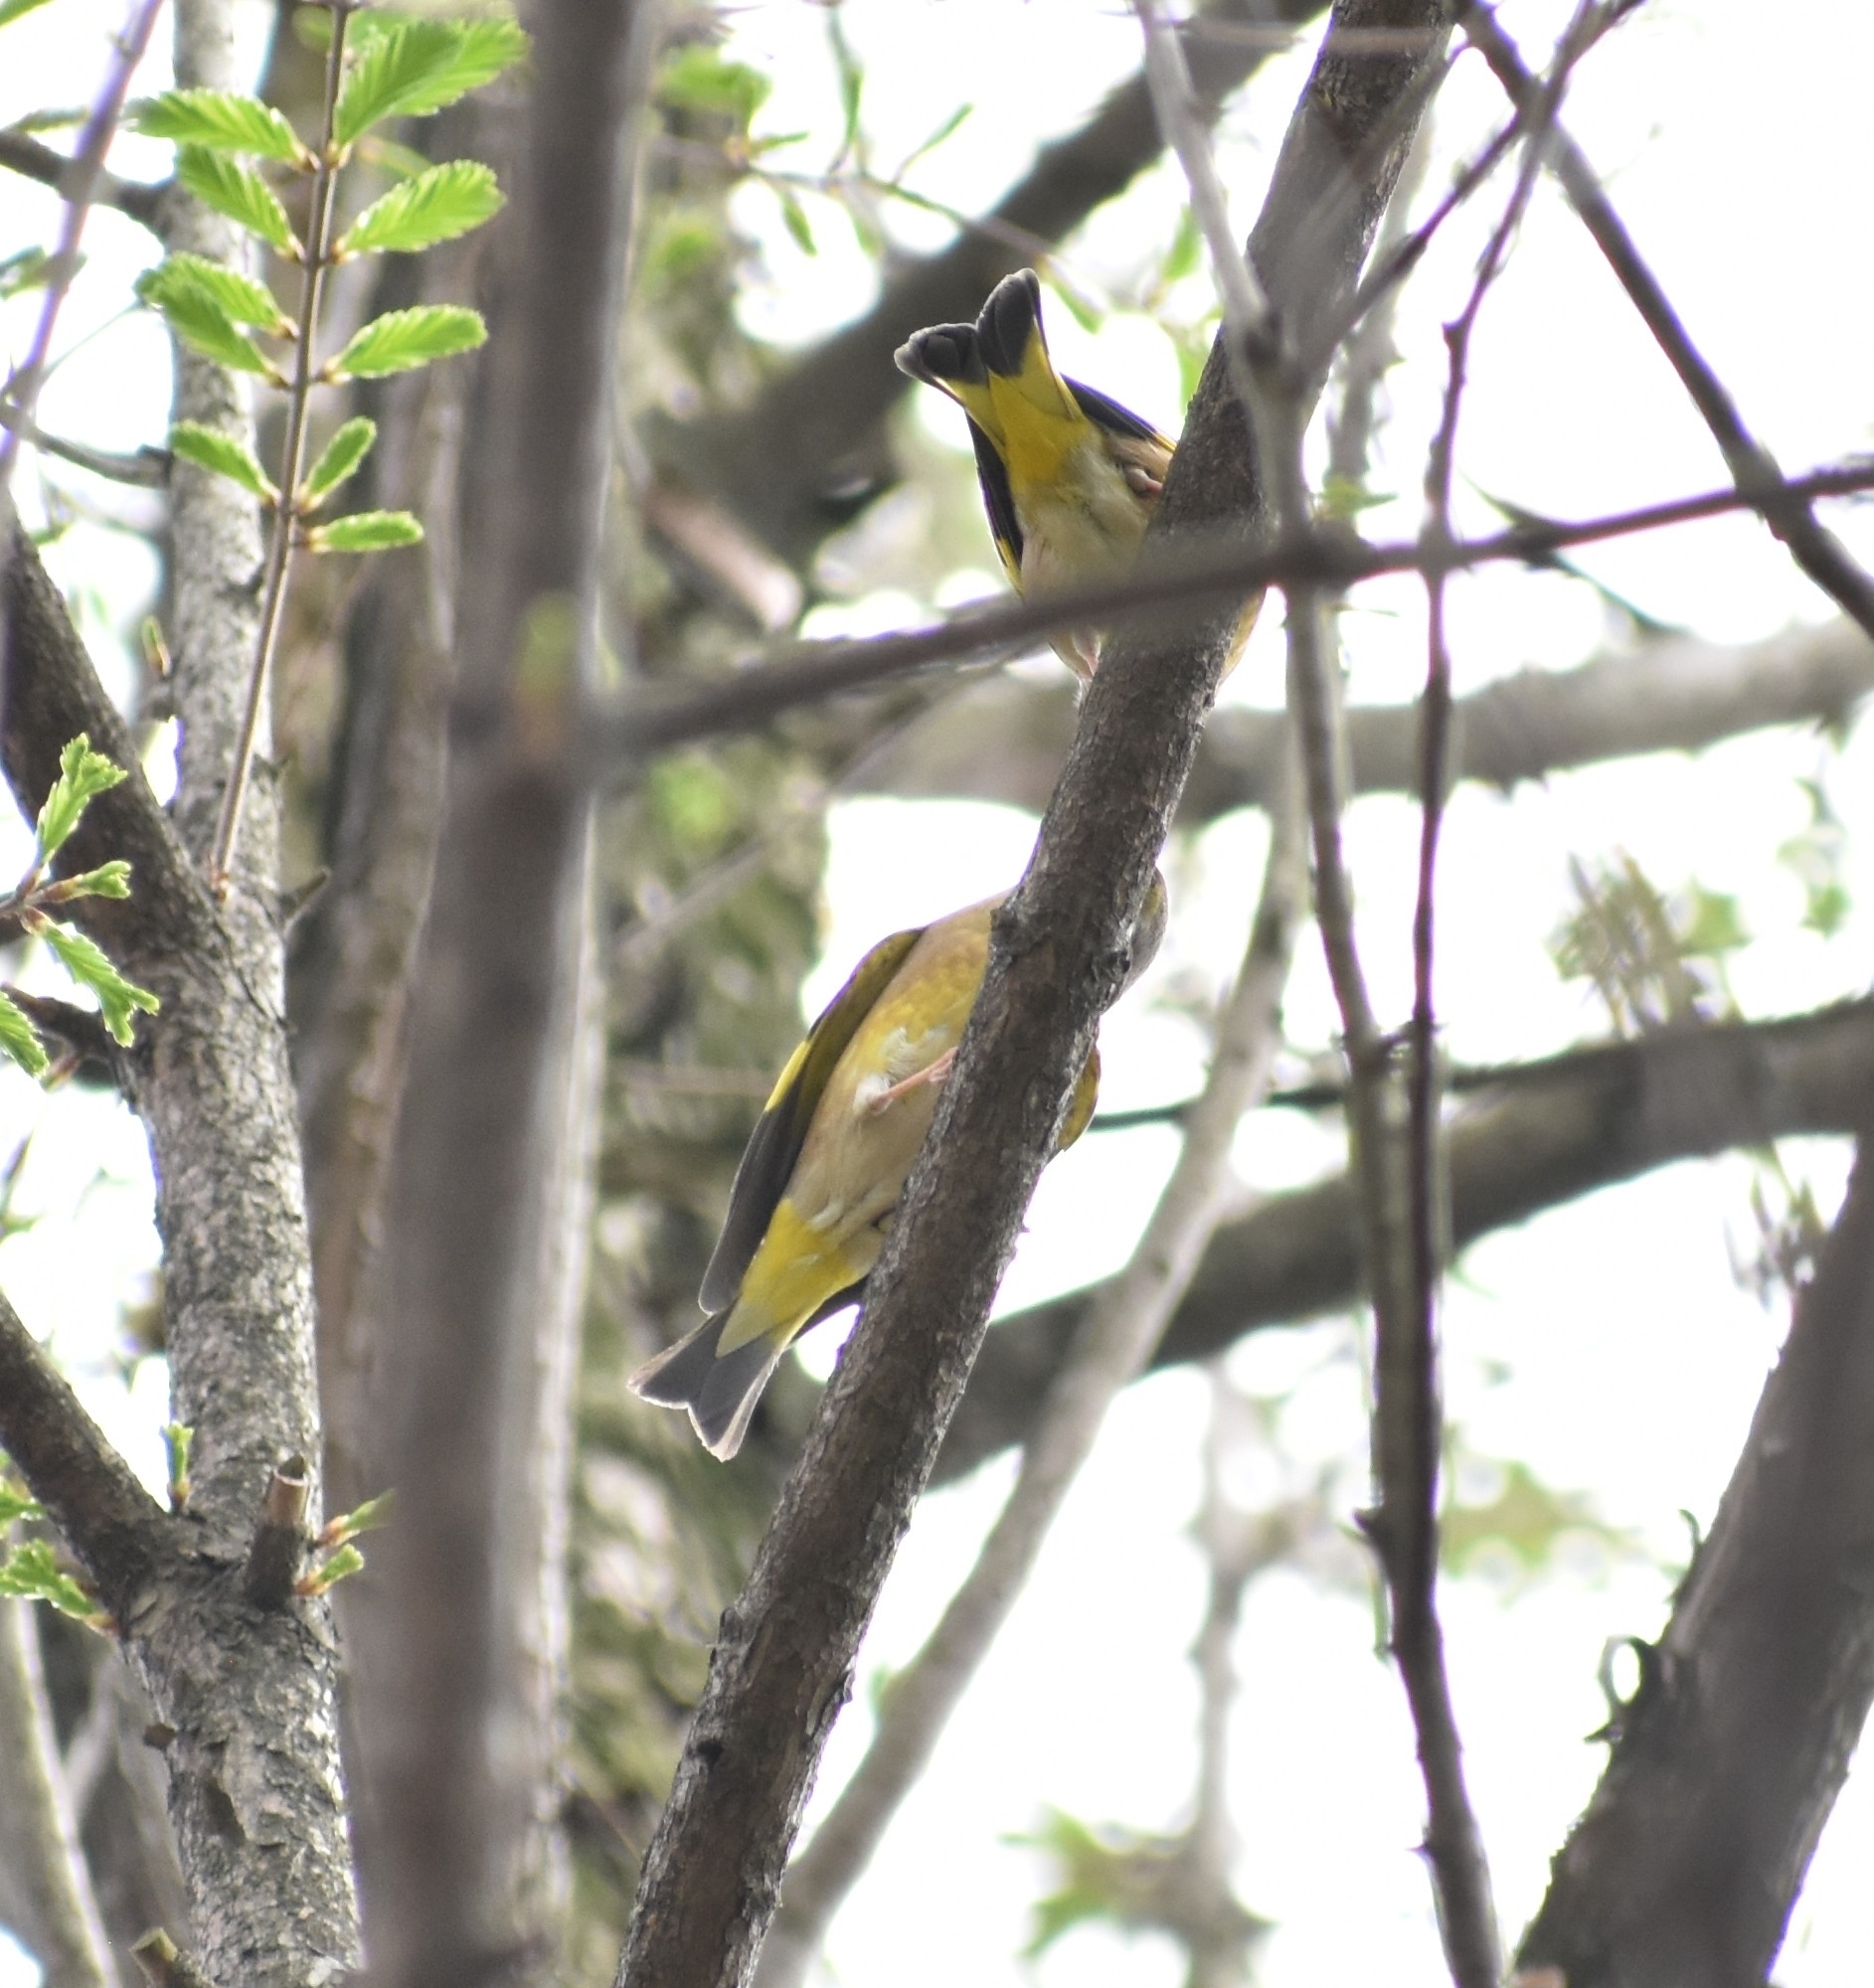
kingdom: Plantae
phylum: Tracheophyta
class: Liliopsida
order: Poales
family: Poaceae
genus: Chloris
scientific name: Chloris sinica
